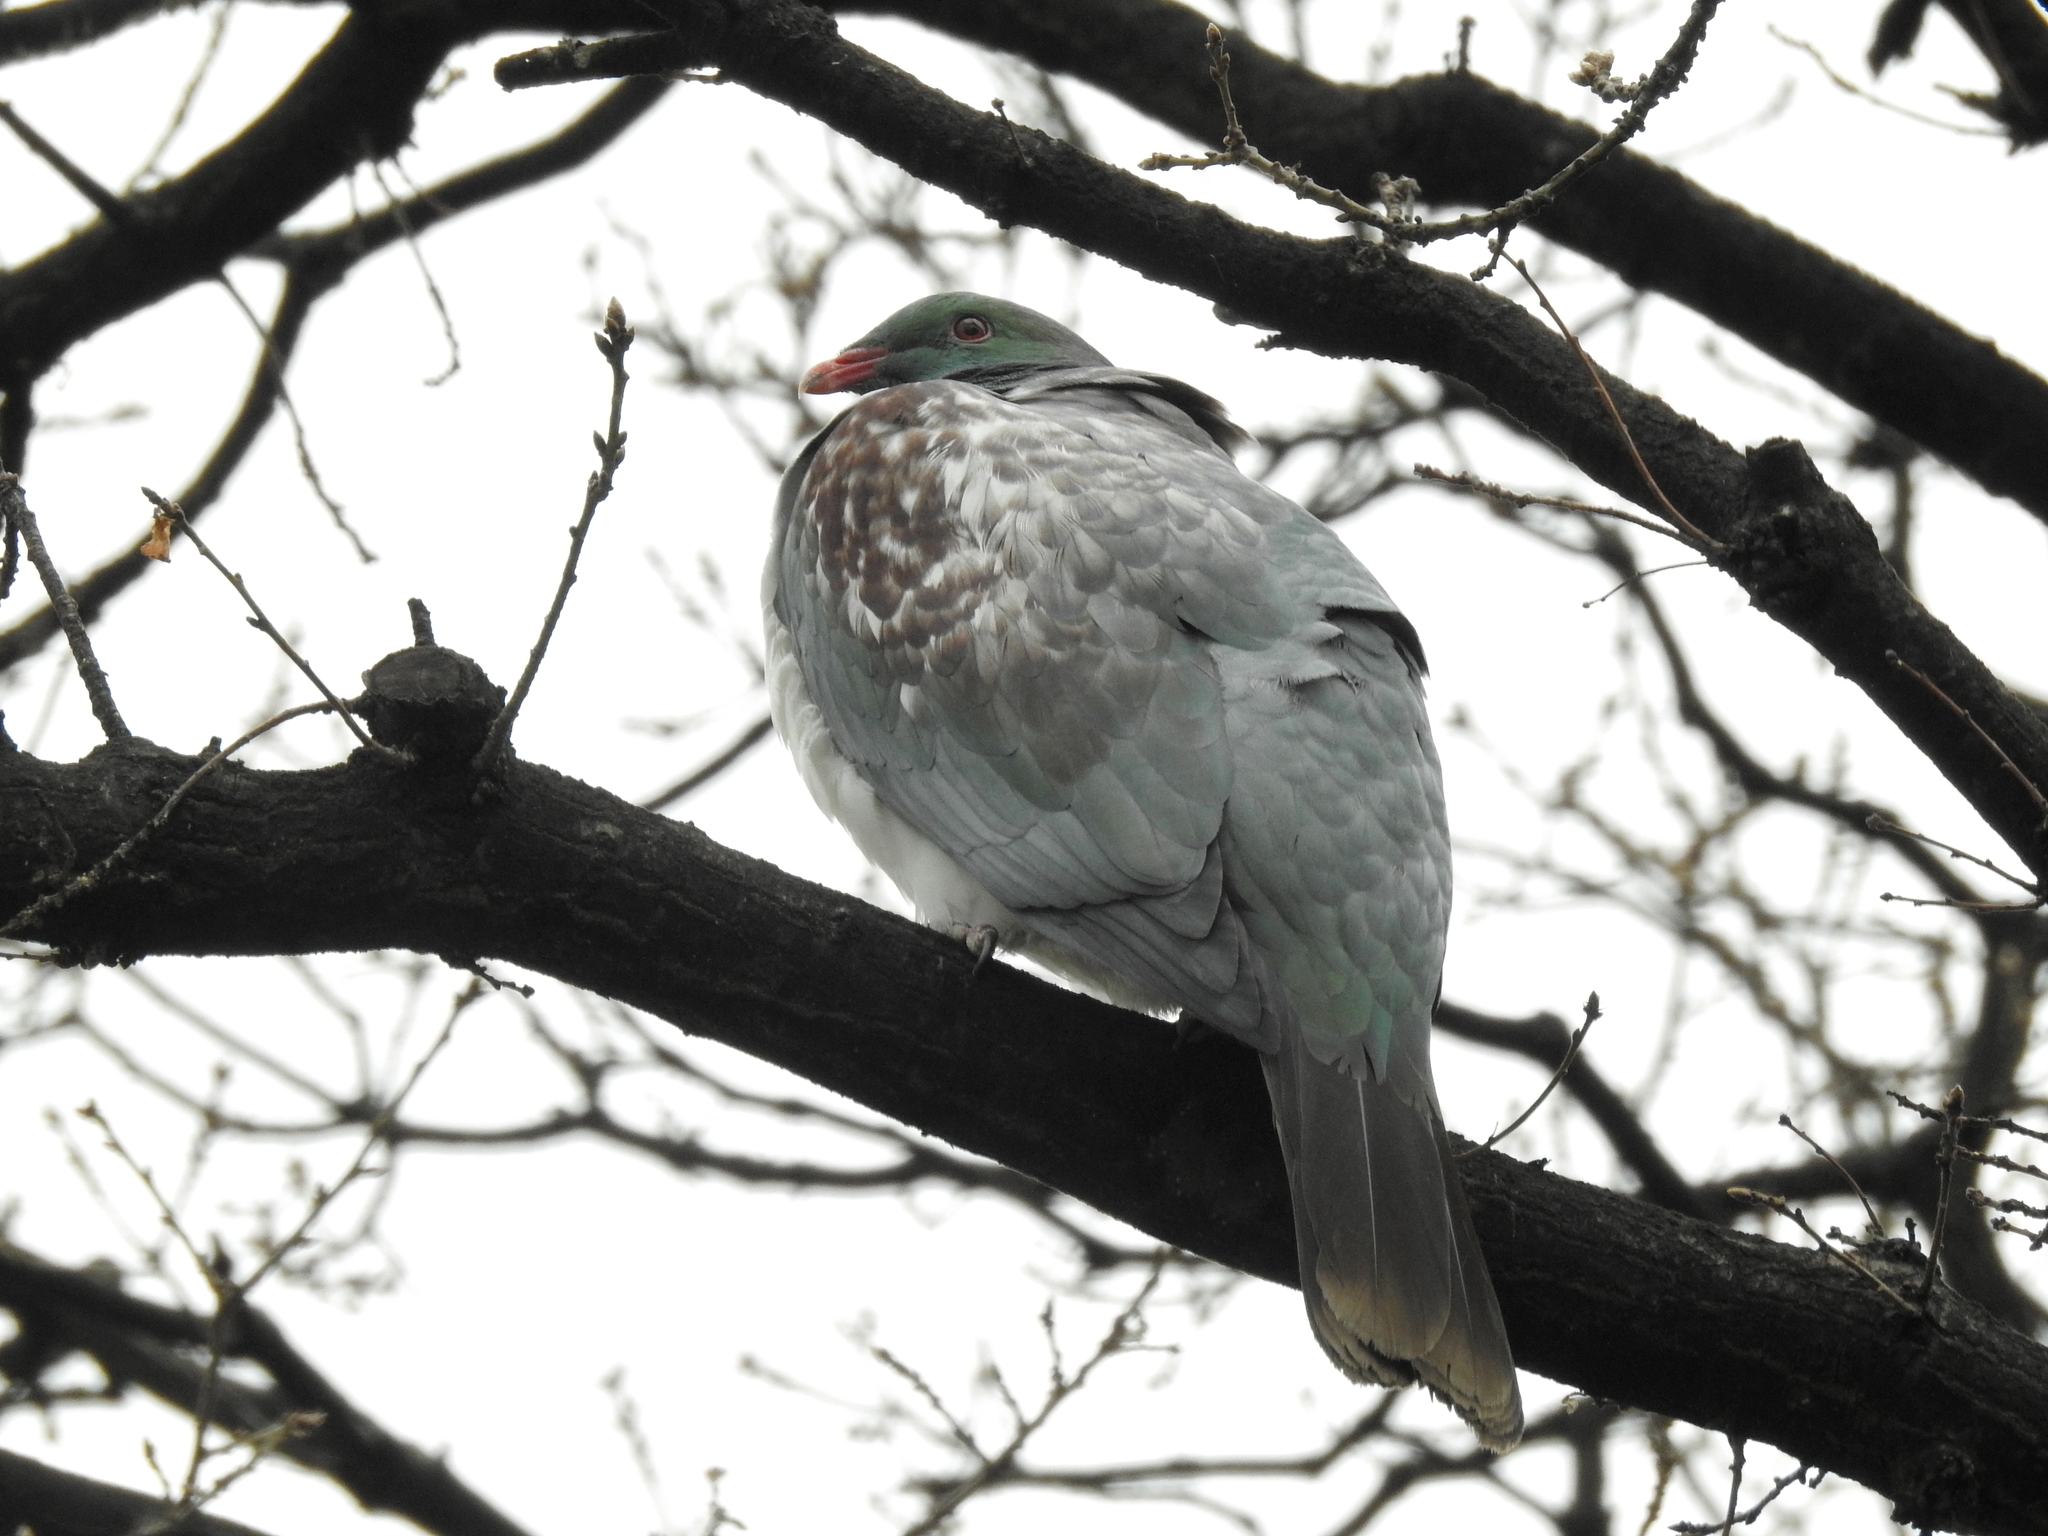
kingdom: Animalia
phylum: Chordata
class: Aves
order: Columbiformes
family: Columbidae
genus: Hemiphaga
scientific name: Hemiphaga novaeseelandiae
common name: New zealand pigeon
